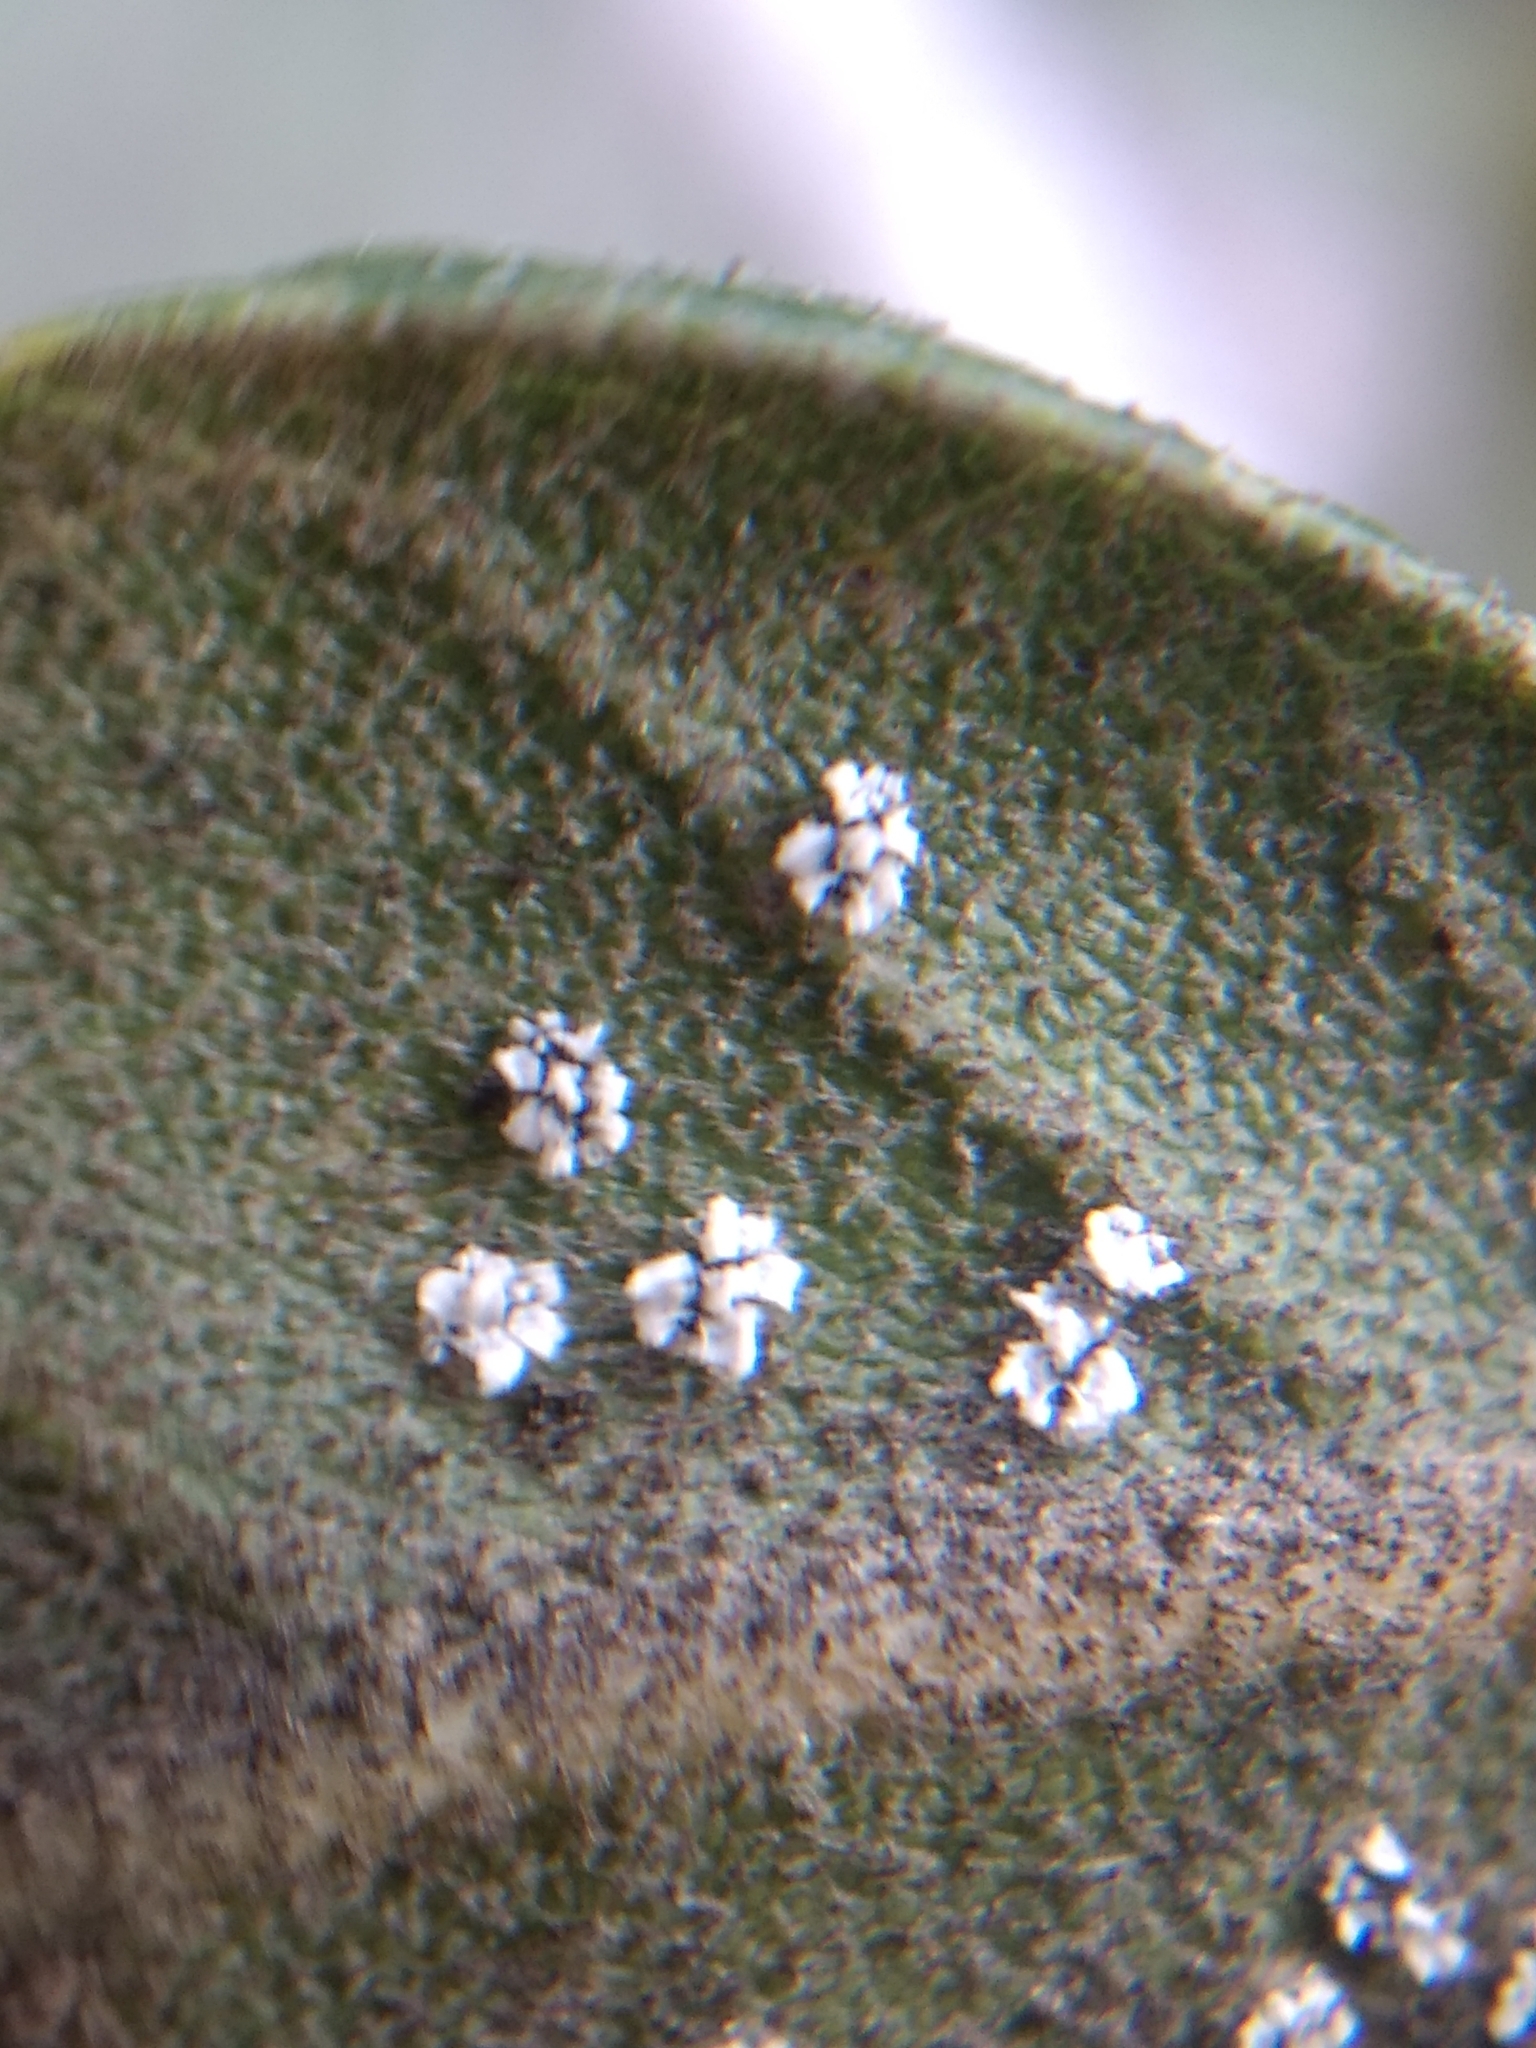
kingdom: Animalia
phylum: Arthropoda
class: Insecta
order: Hemiptera
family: Aleyrodidae
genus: Aleuroplatus
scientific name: Aleuroplatus coronata
